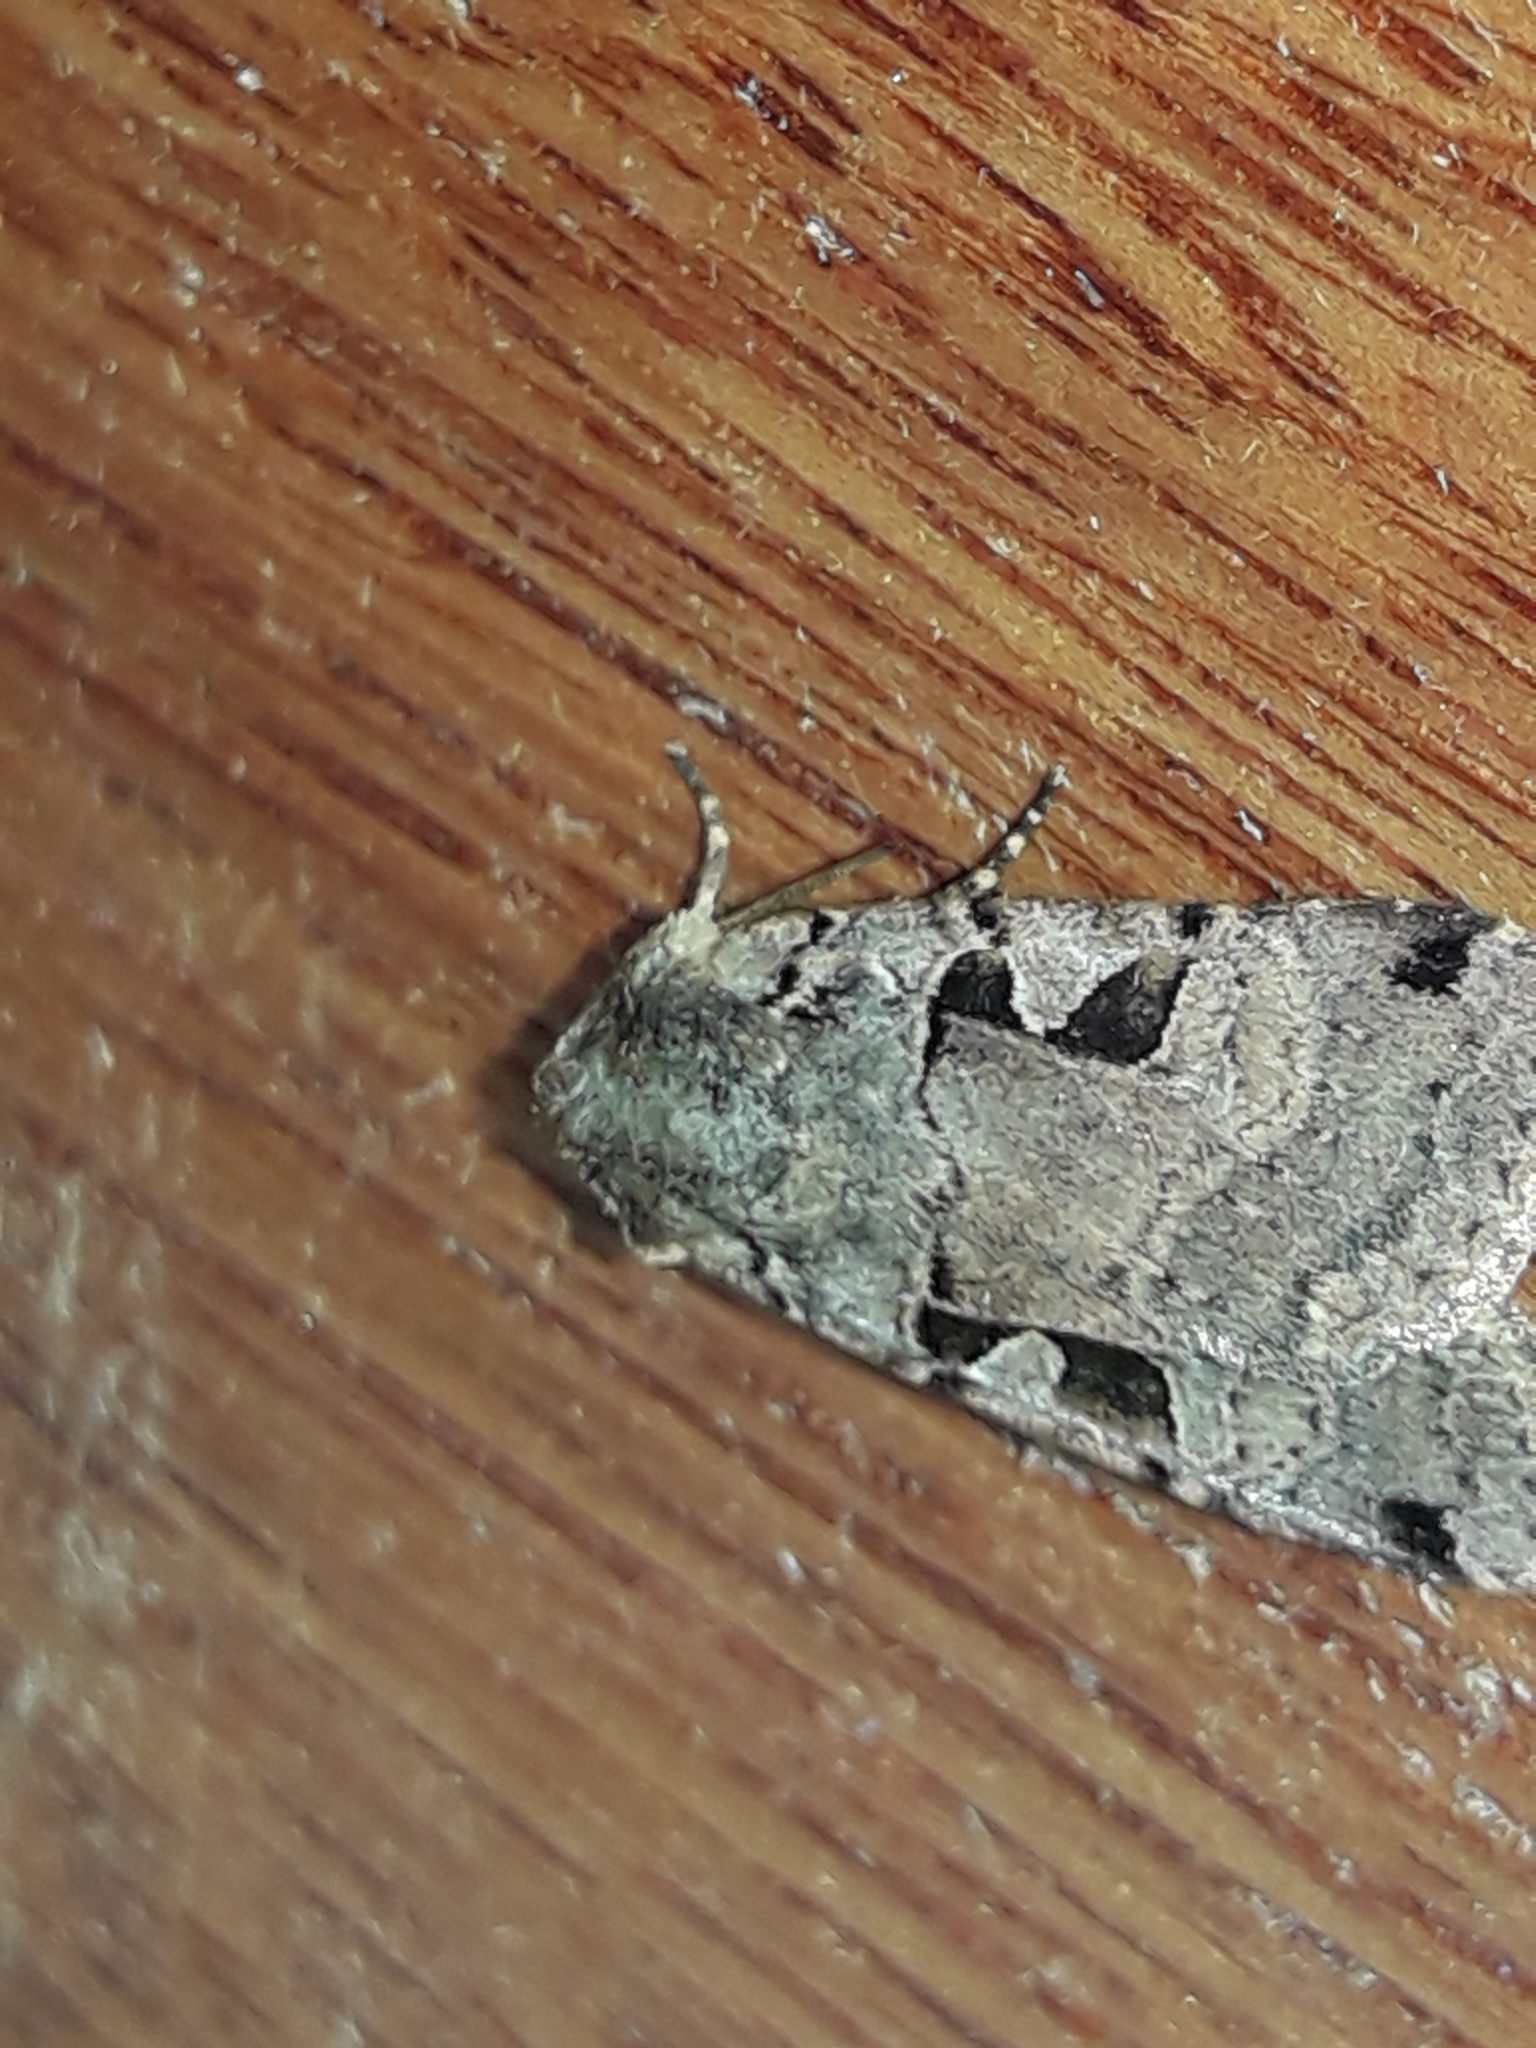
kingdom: Animalia
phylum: Arthropoda
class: Insecta
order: Lepidoptera
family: Noctuidae
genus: Xestia
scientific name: Xestia triangulum
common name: Double square-spot
